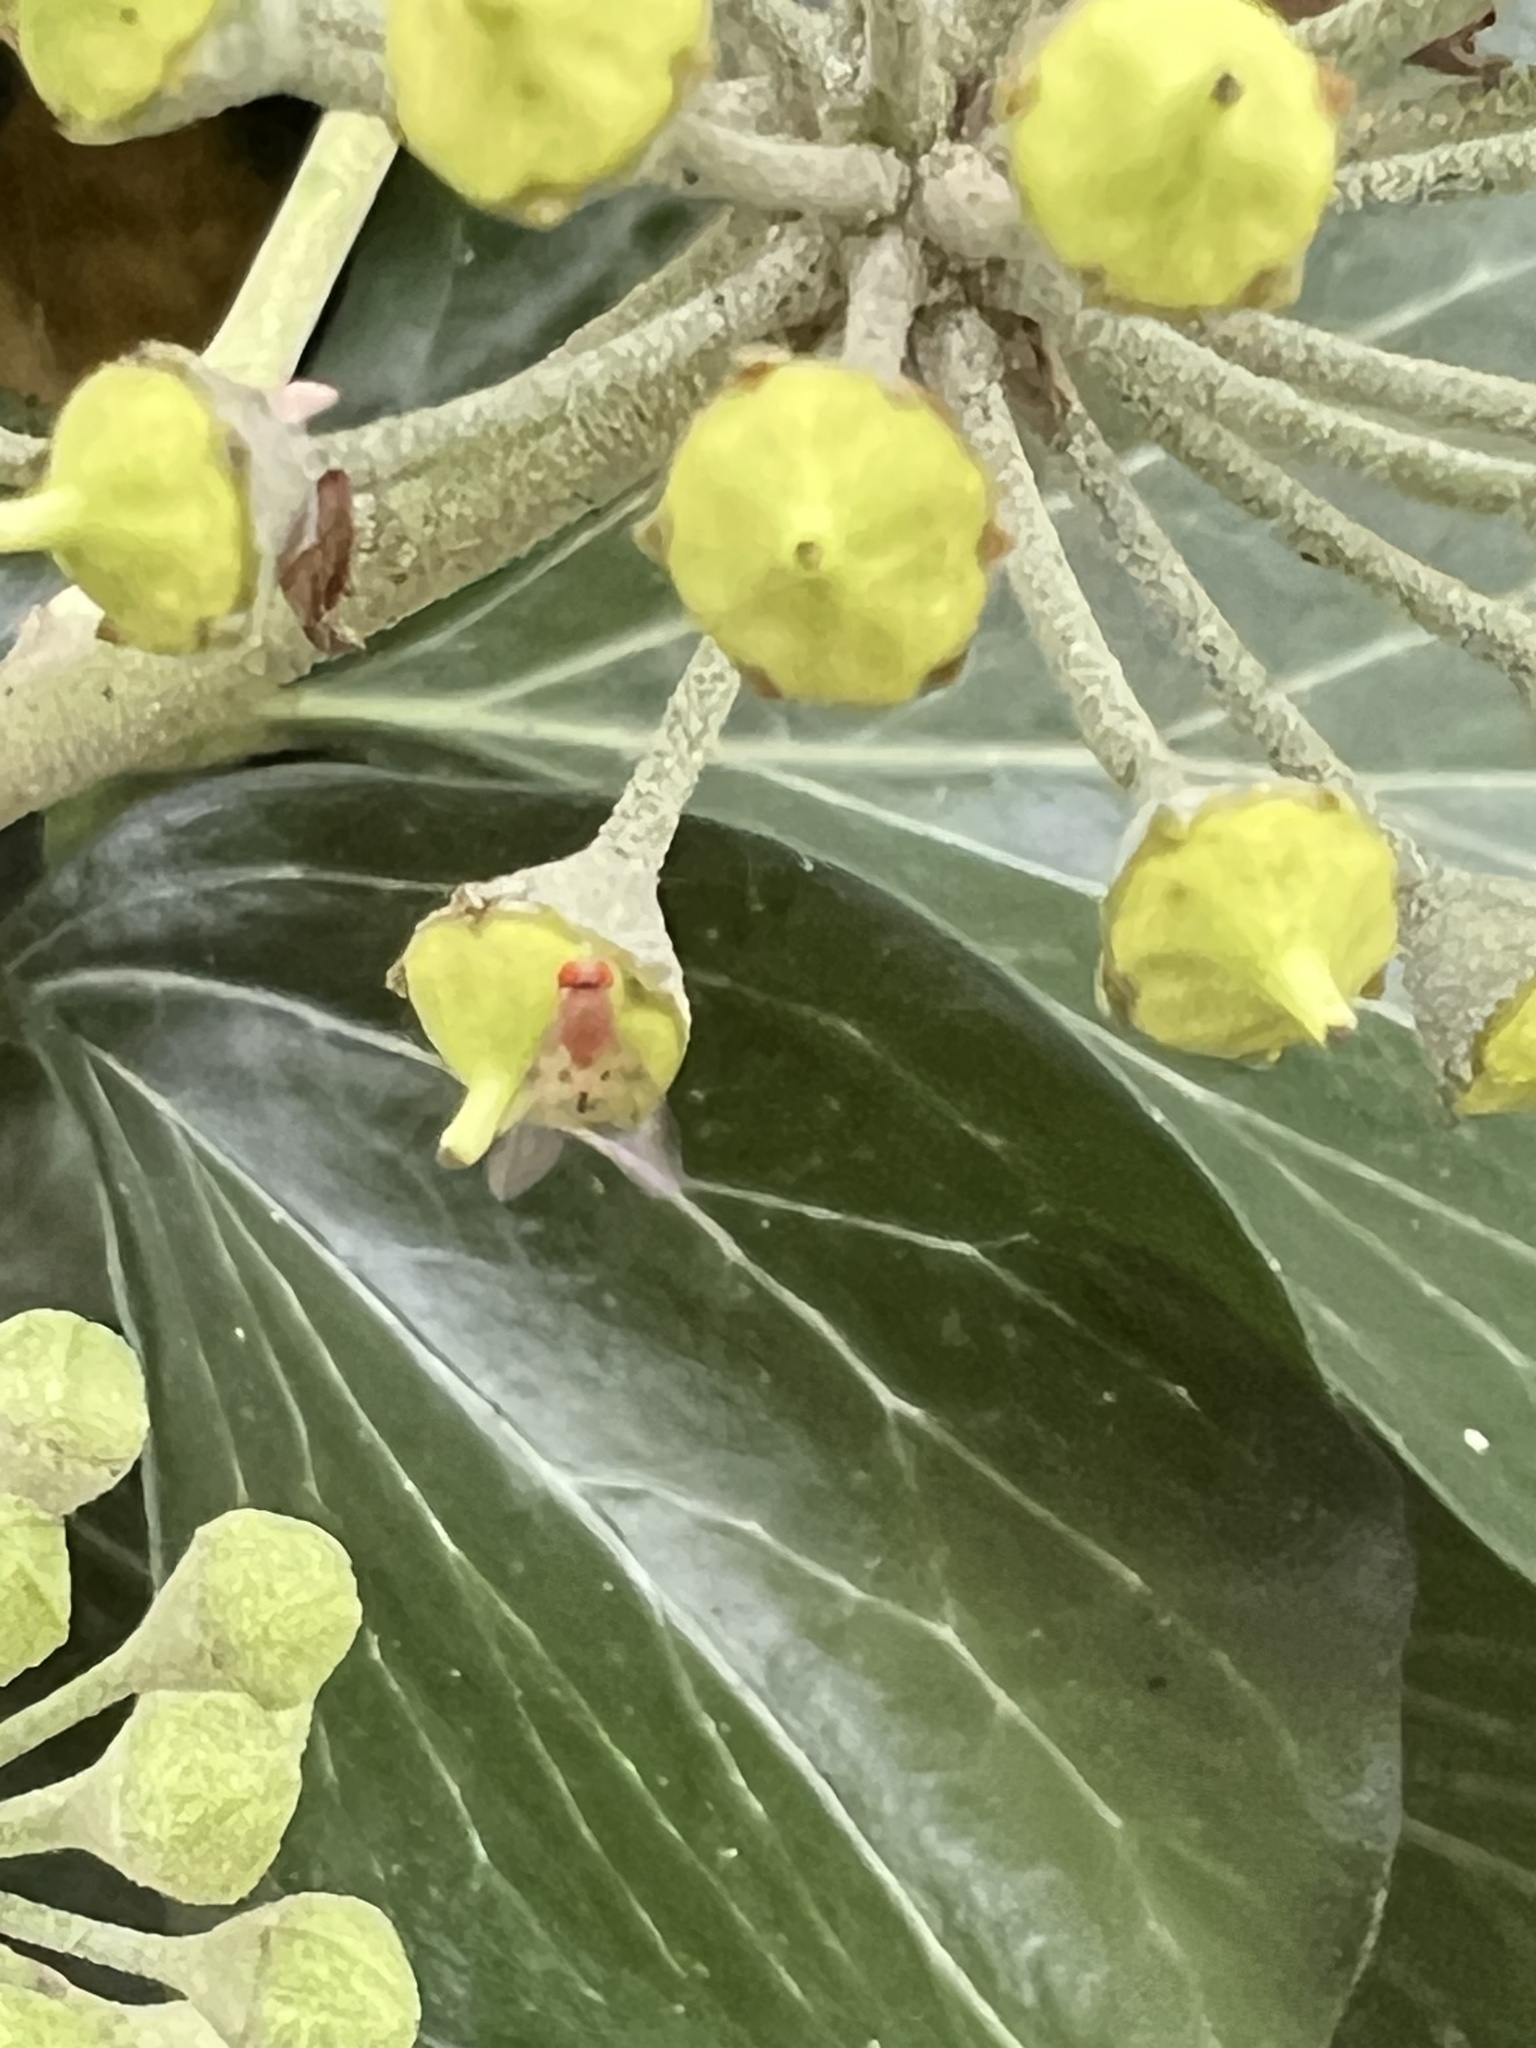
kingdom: Animalia
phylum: Arthropoda
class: Insecta
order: Diptera
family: Drosophilidae
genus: Leucophenga
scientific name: Leucophenga varia
